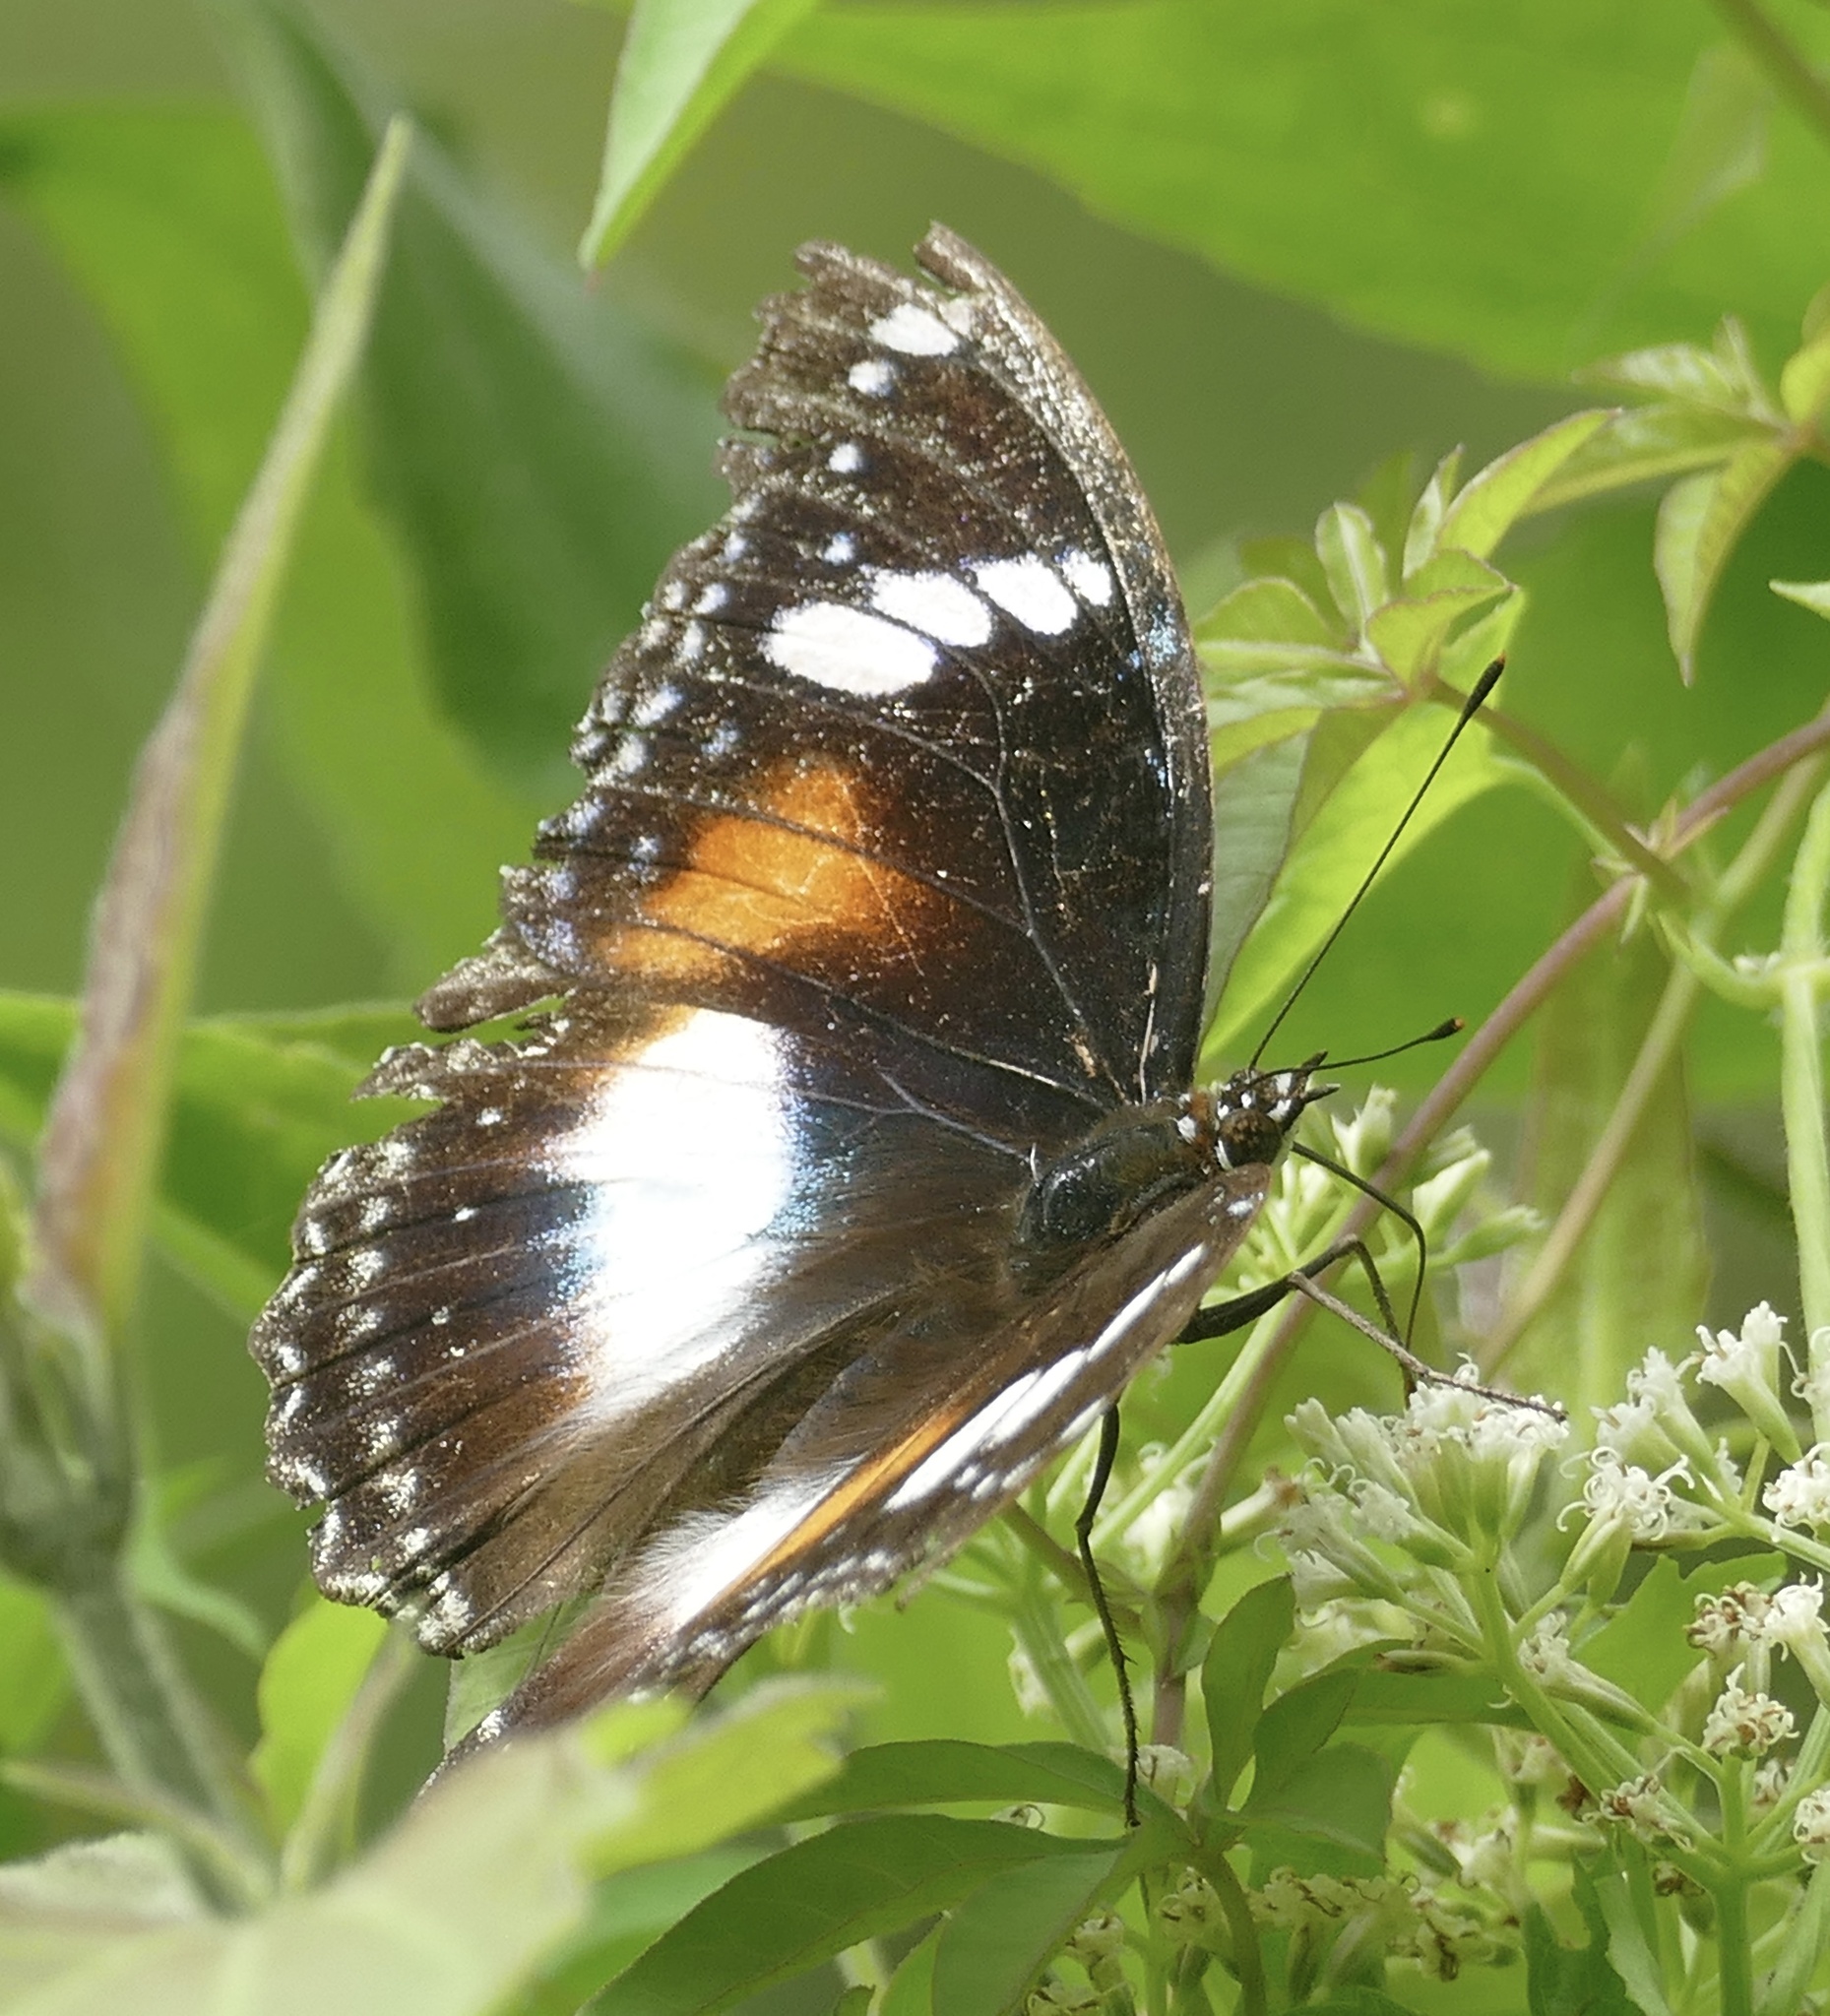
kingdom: Animalia
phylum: Arthropoda
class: Insecta
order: Lepidoptera
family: Nymphalidae
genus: Hypolimnas
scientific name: Hypolimnas bolina
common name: Great eggfly
